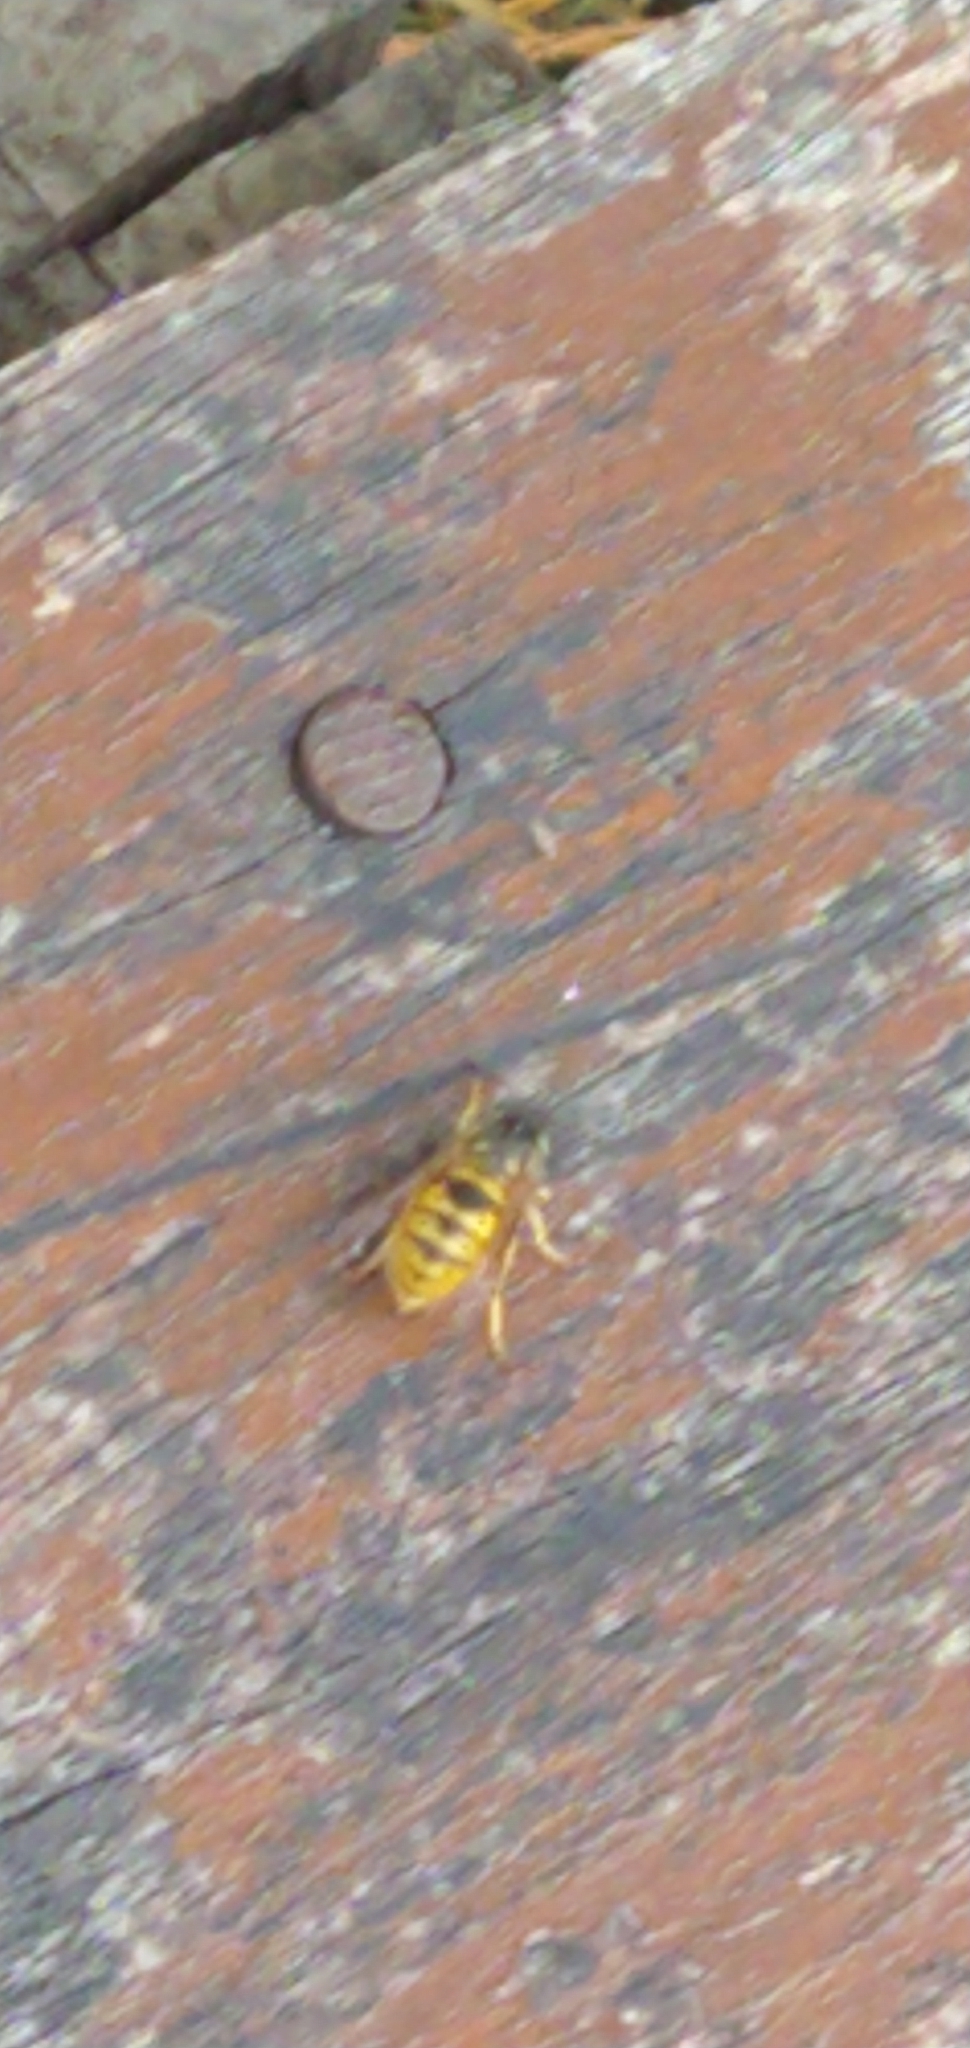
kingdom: Animalia
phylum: Arthropoda
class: Insecta
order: Hymenoptera
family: Vespidae
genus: Vespula
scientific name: Vespula vulgaris
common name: Common wasp
